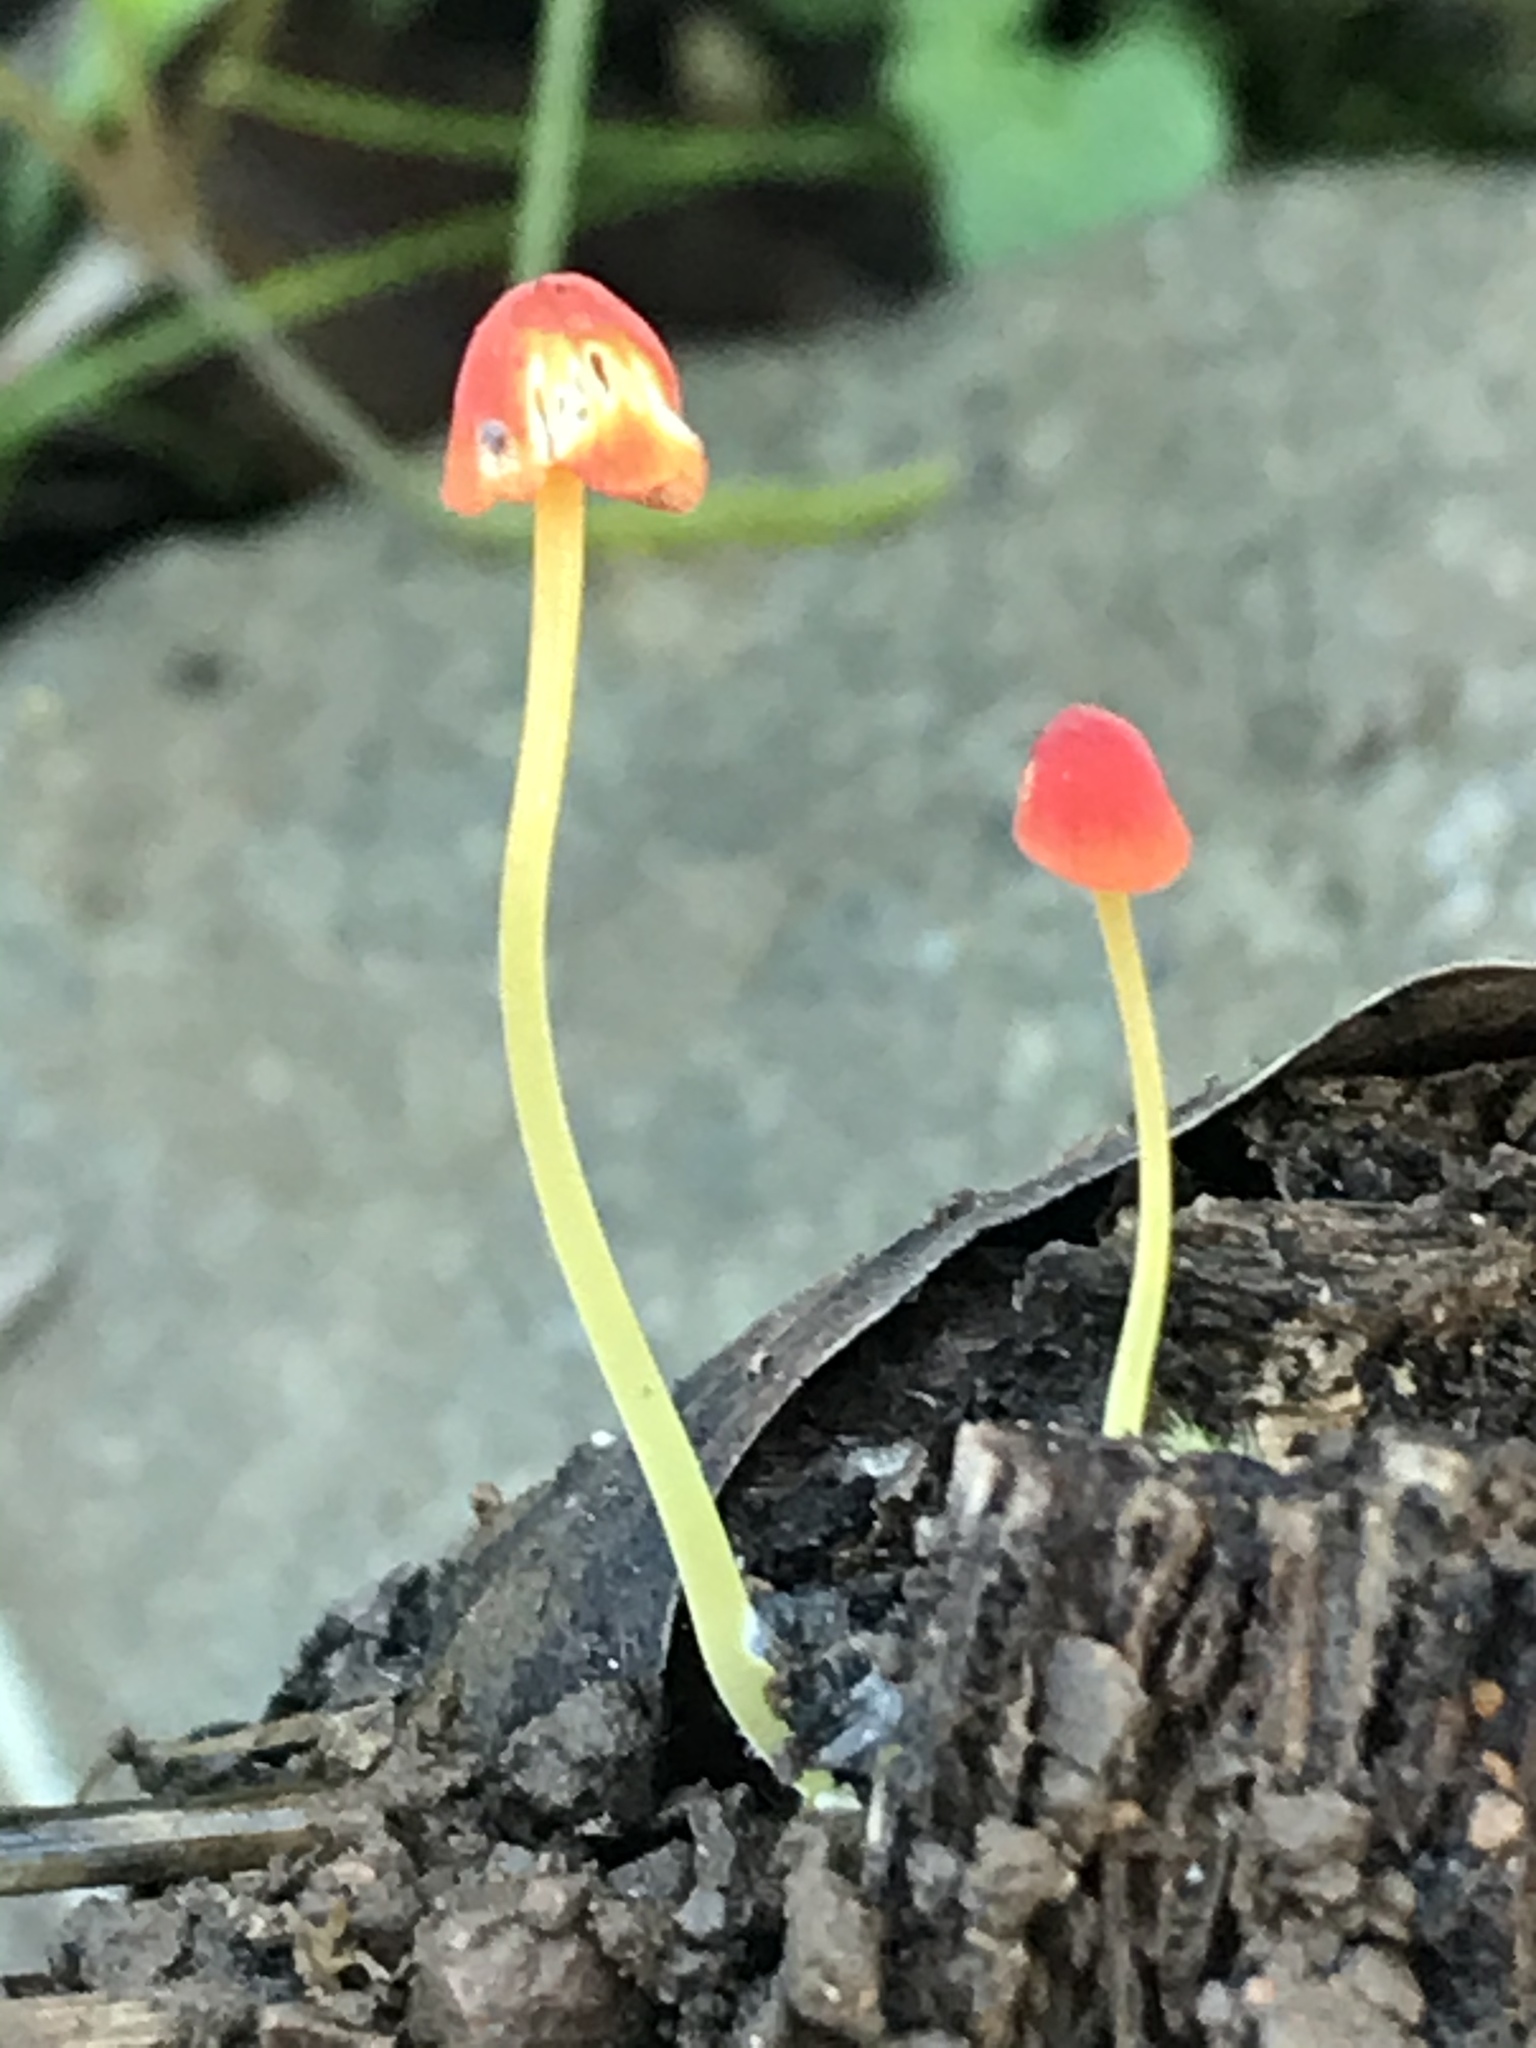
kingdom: Fungi
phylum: Basidiomycota
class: Agaricomycetes
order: Agaricales
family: Mycenaceae
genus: Mycena
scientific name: Mycena acicula
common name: Orange bonnet
